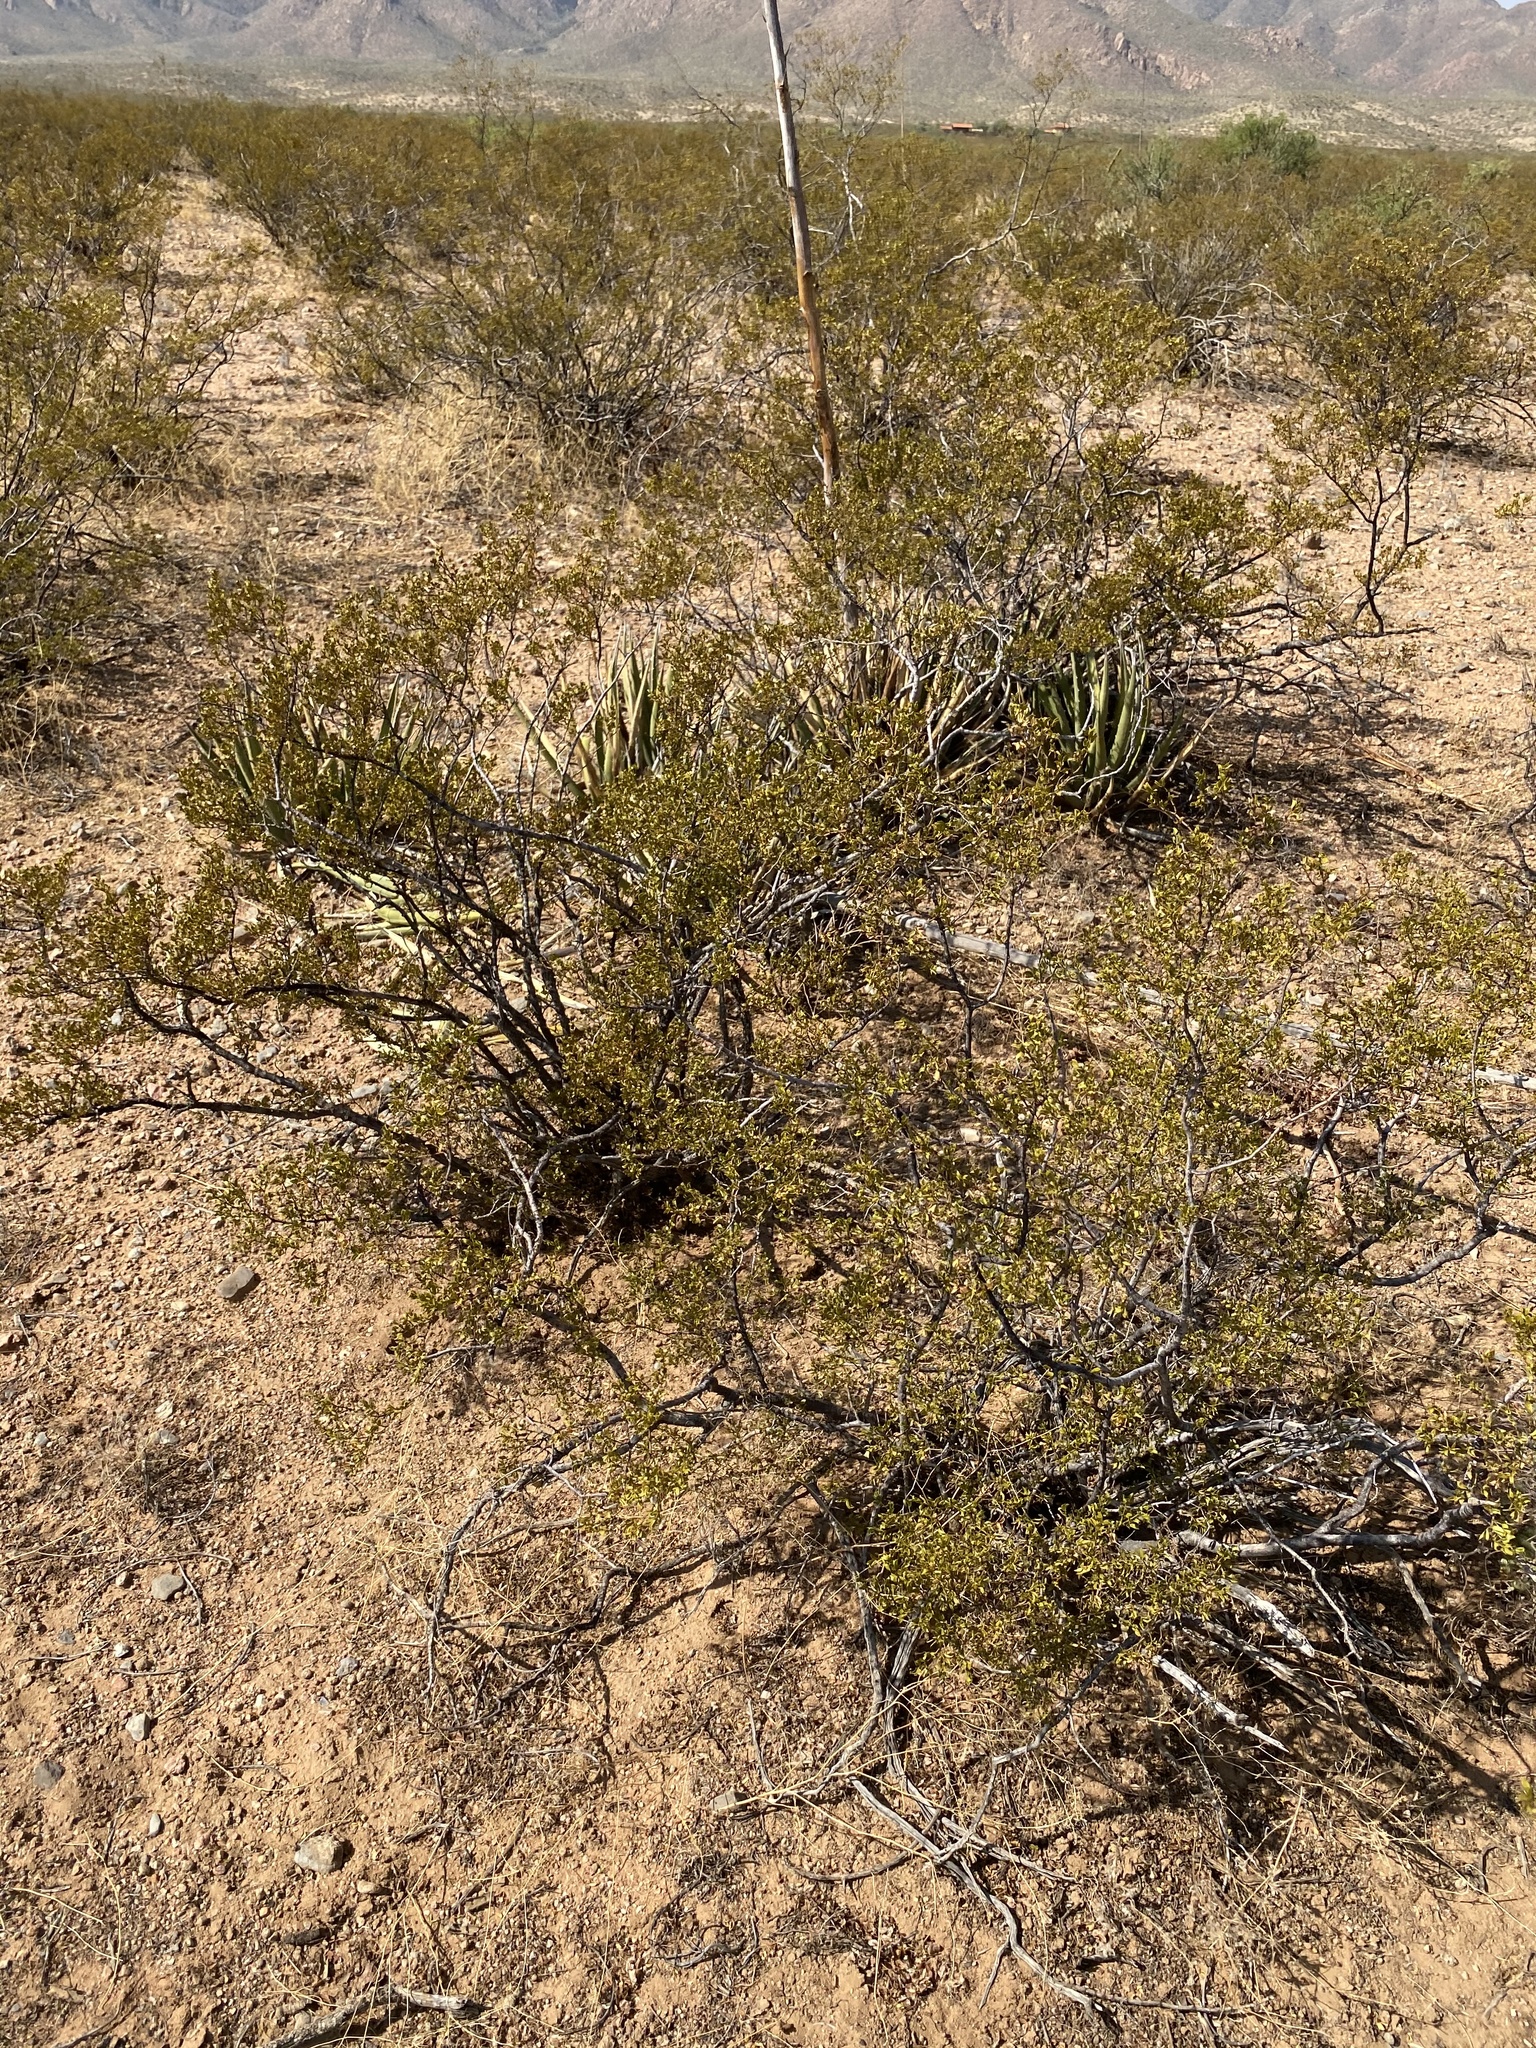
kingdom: Plantae
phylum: Tracheophyta
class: Magnoliopsida
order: Zygophyllales
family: Zygophyllaceae
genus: Larrea
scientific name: Larrea tridentata
